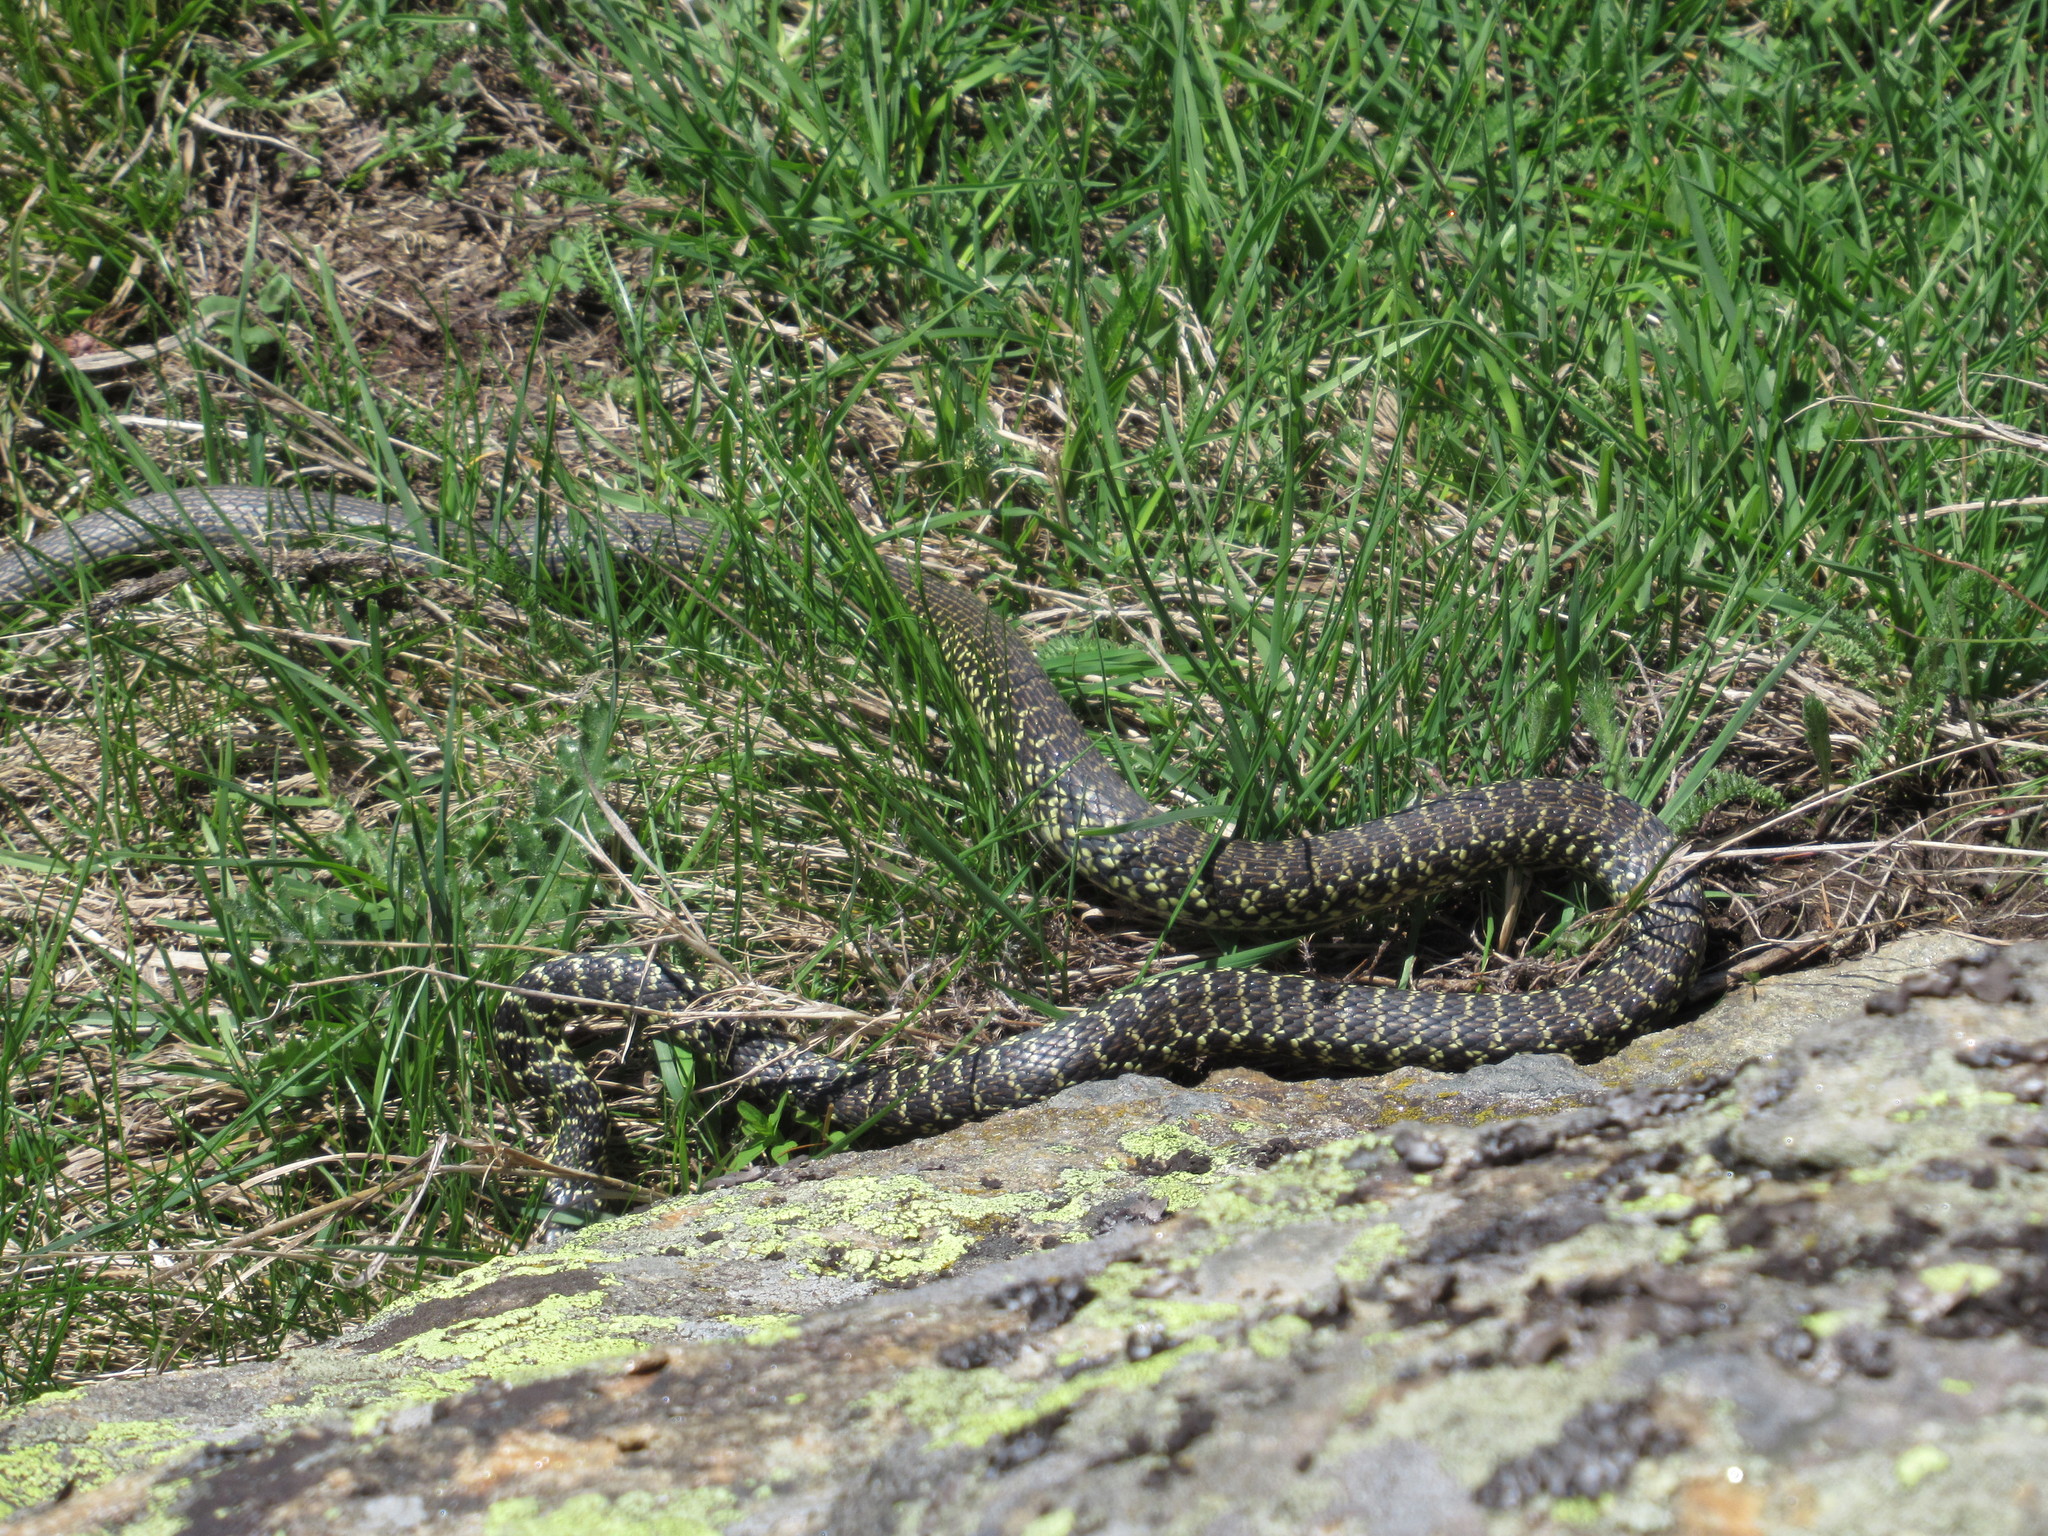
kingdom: Animalia
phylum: Chordata
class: Squamata
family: Colubridae
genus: Hierophis
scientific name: Hierophis viridiflavus
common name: Green whip snake
